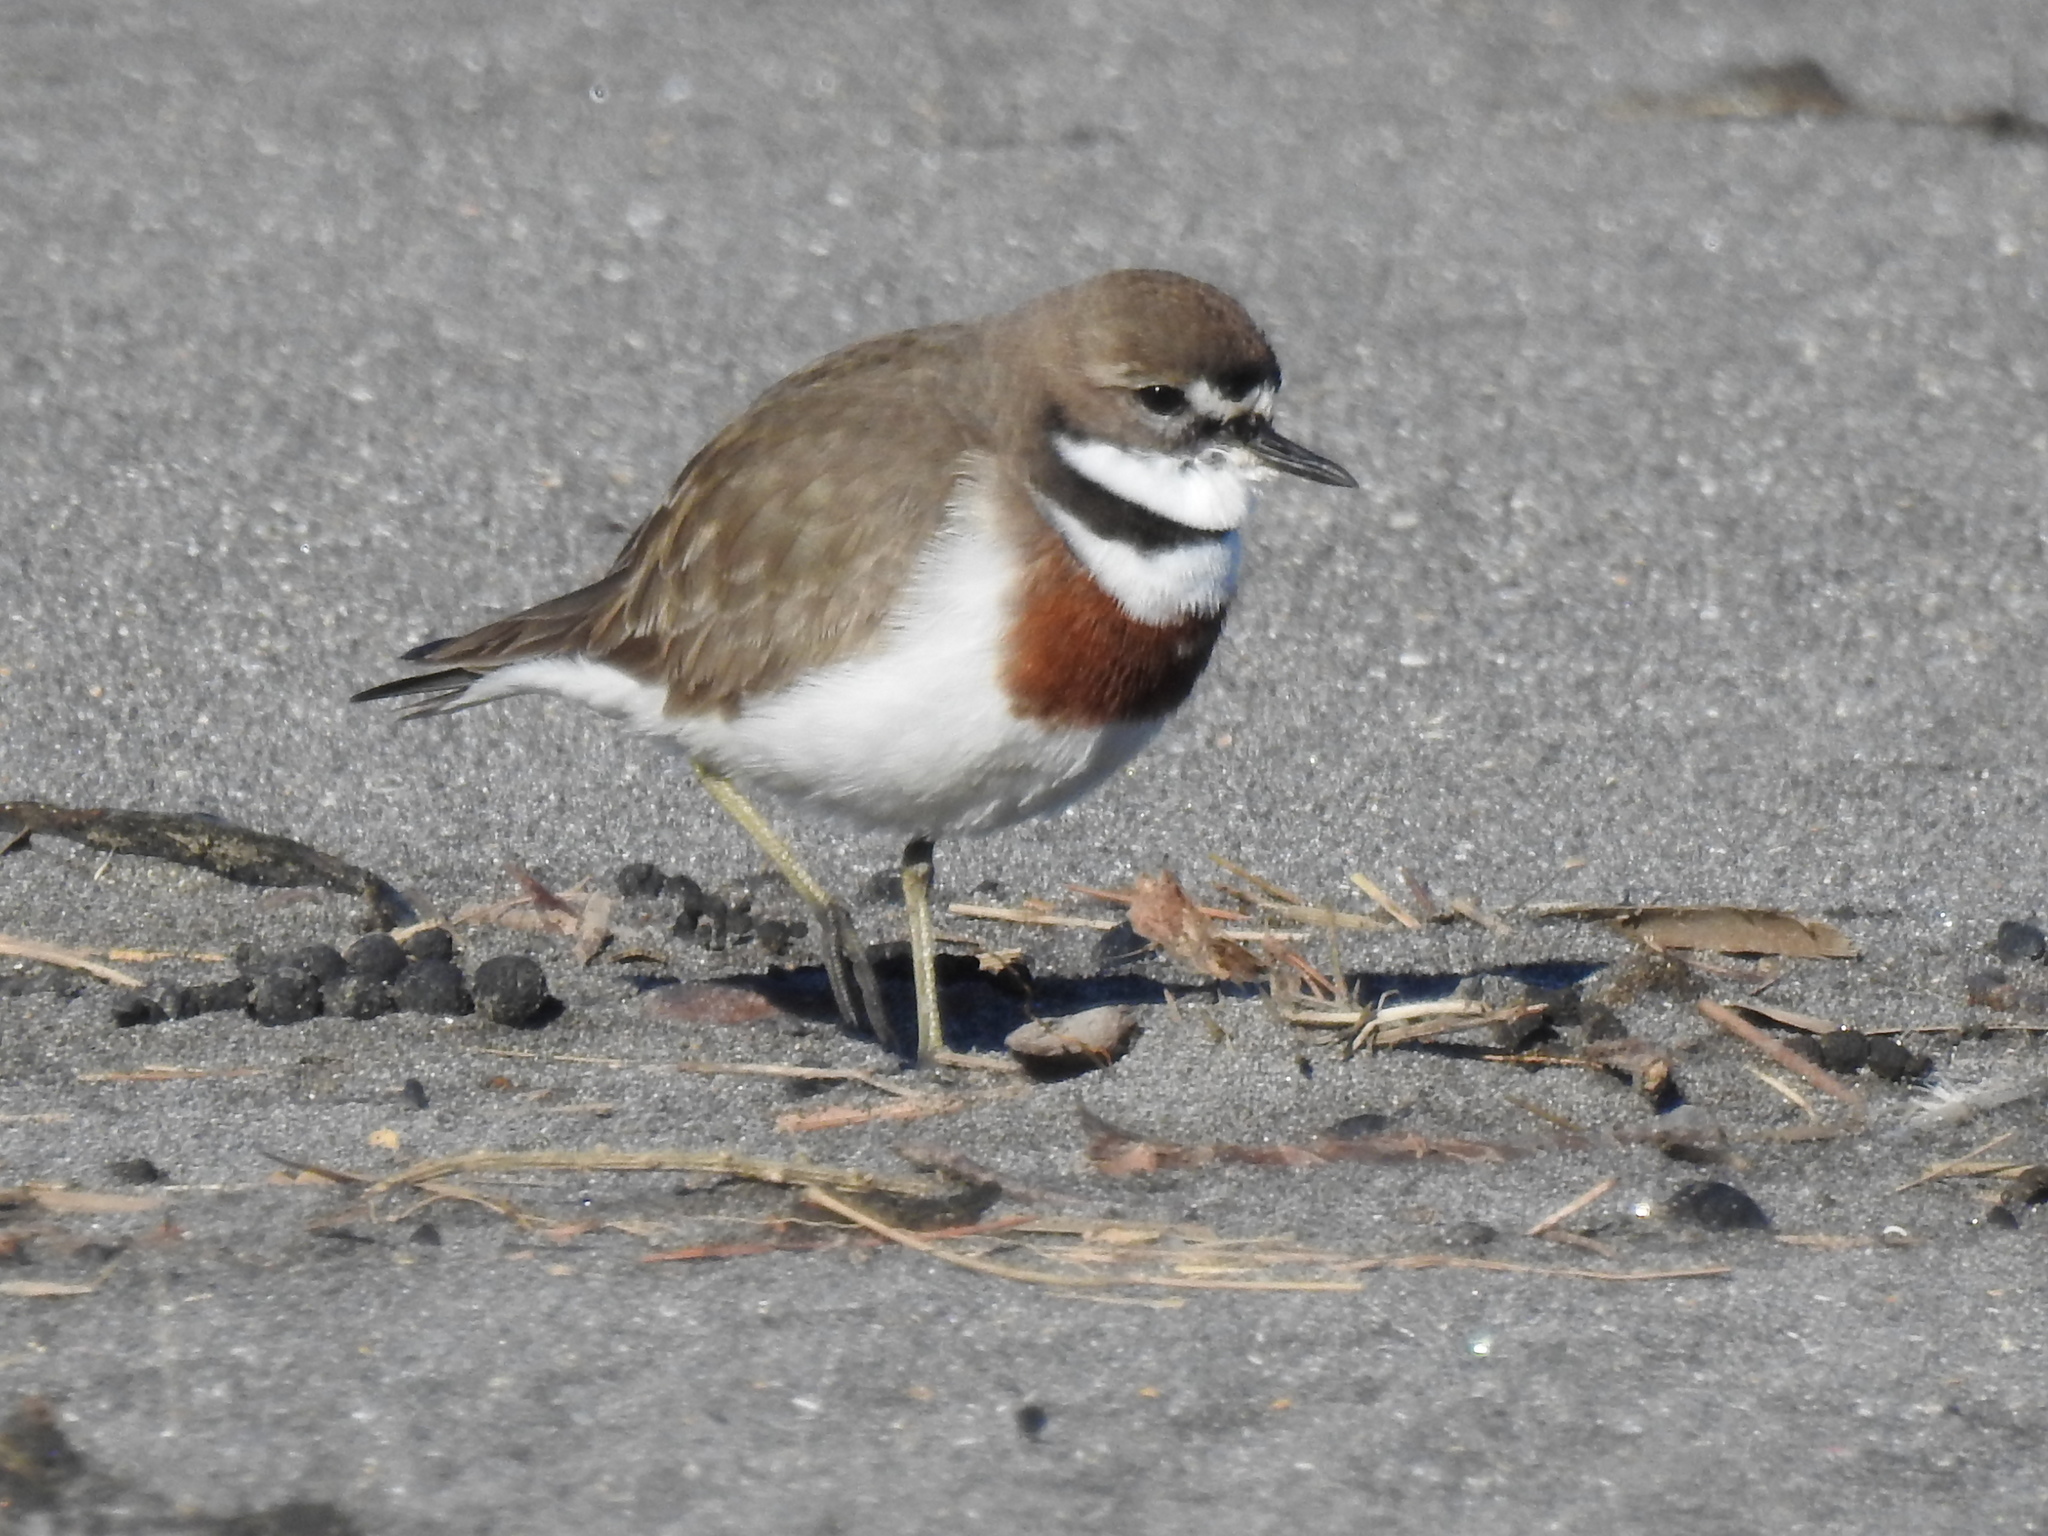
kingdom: Animalia
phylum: Chordata
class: Aves
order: Charadriiformes
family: Charadriidae
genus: Anarhynchus
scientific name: Anarhynchus
